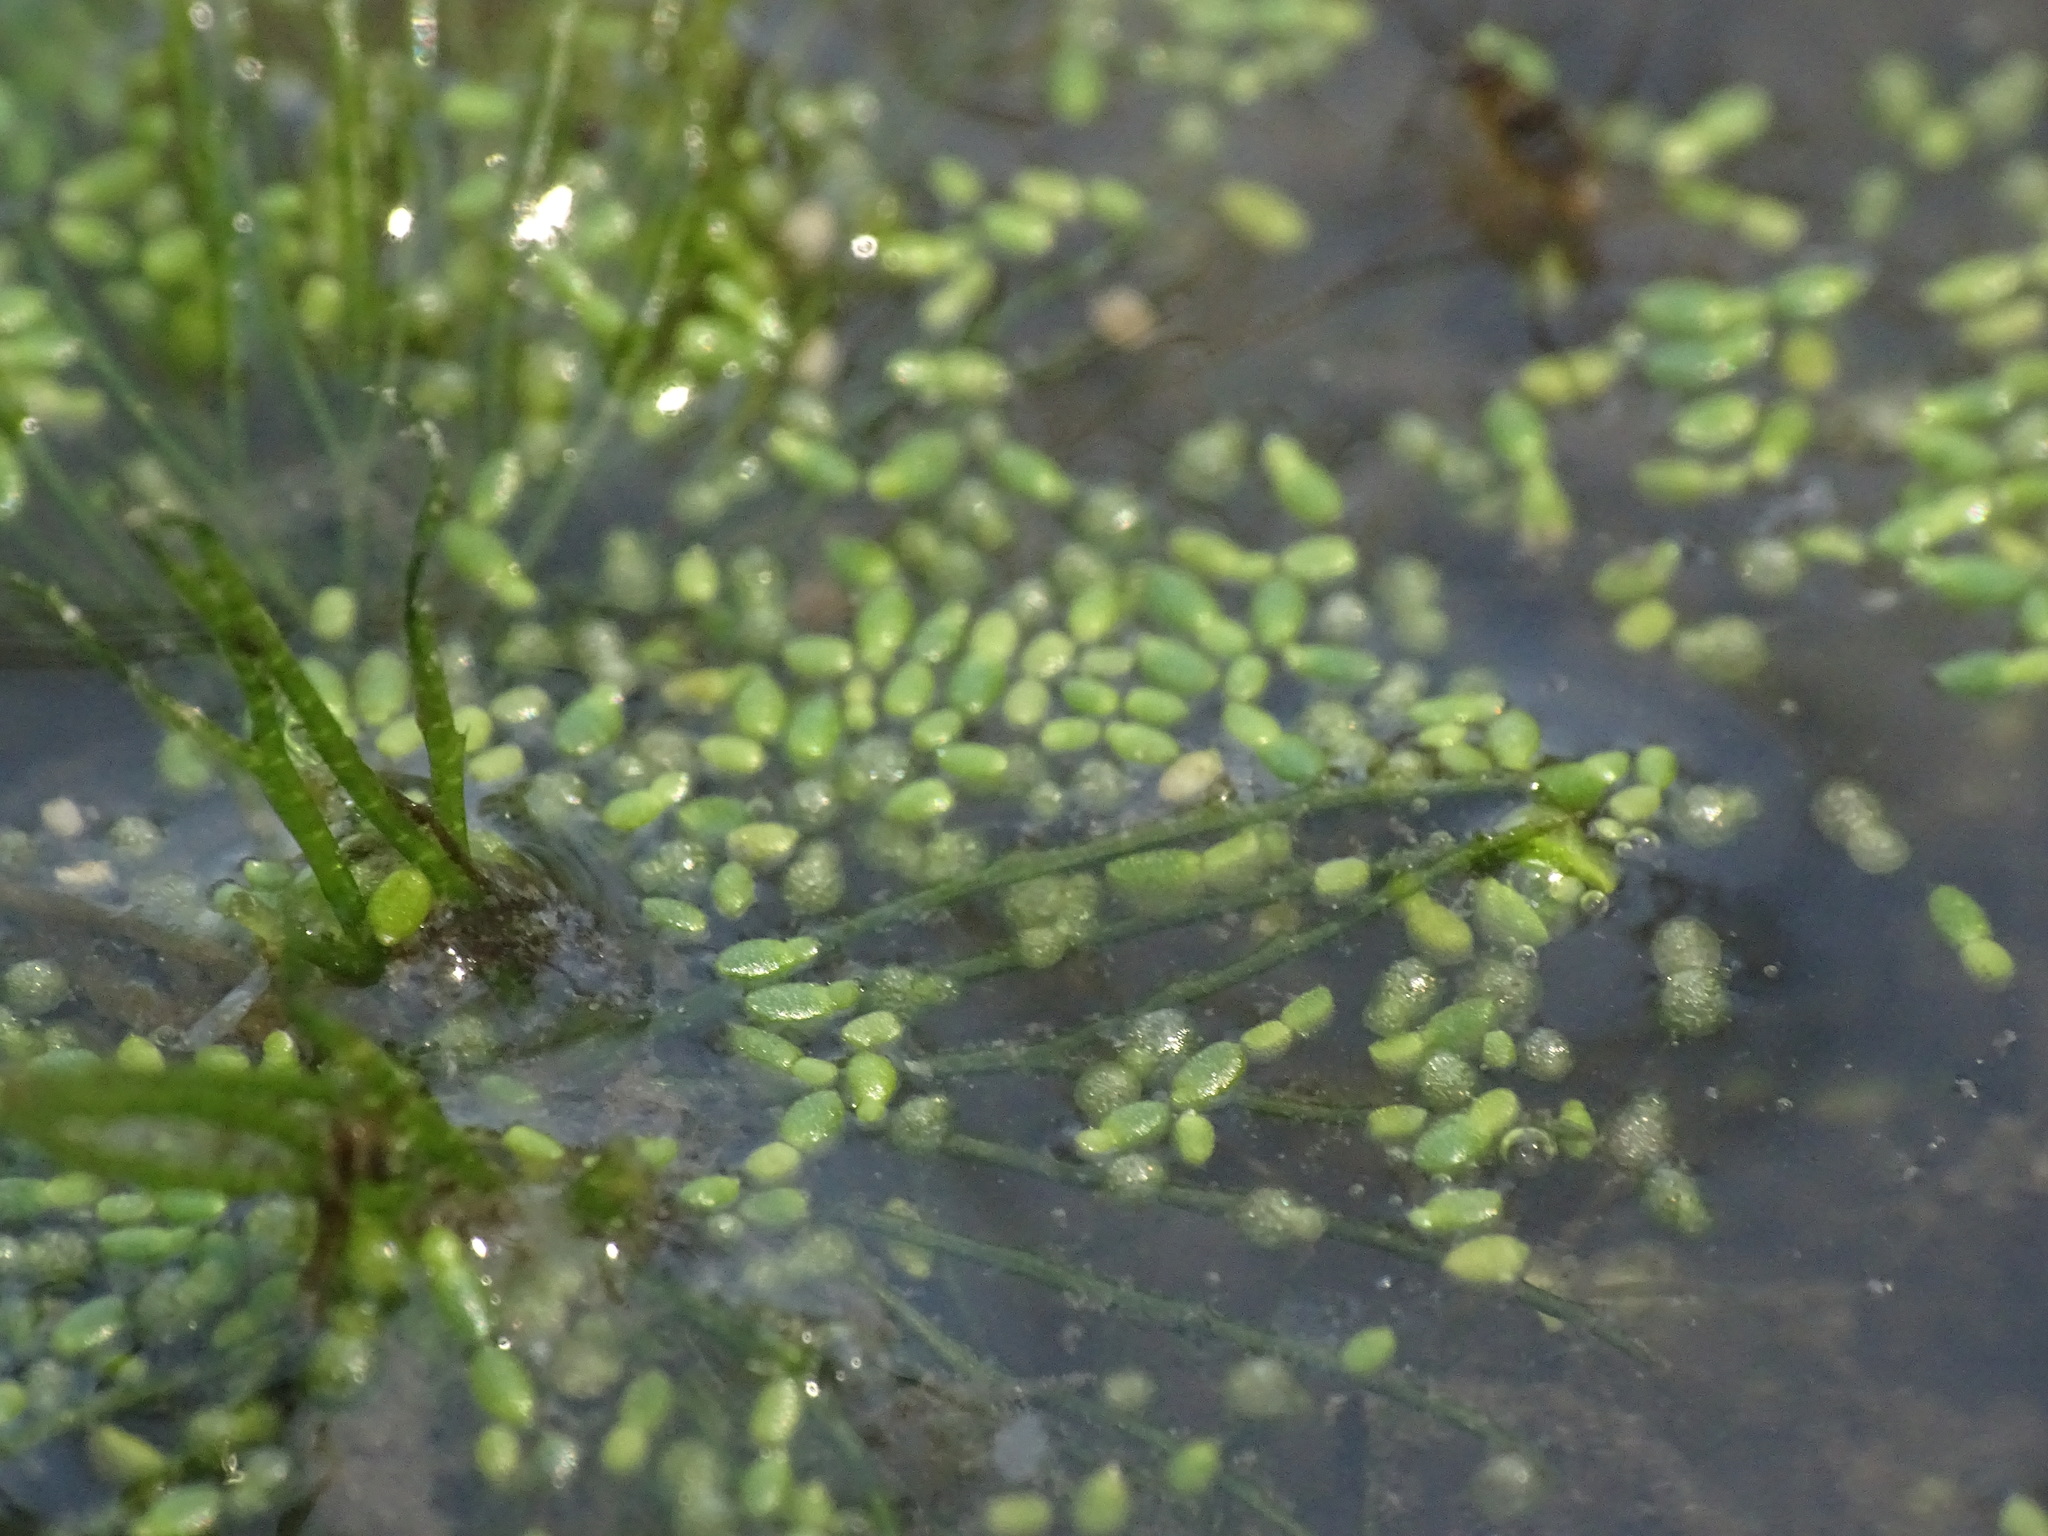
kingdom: Plantae
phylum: Tracheophyta
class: Liliopsida
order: Alismatales
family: Araceae
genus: Wolffia
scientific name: Wolffia borealis
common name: Dotted watermeal
